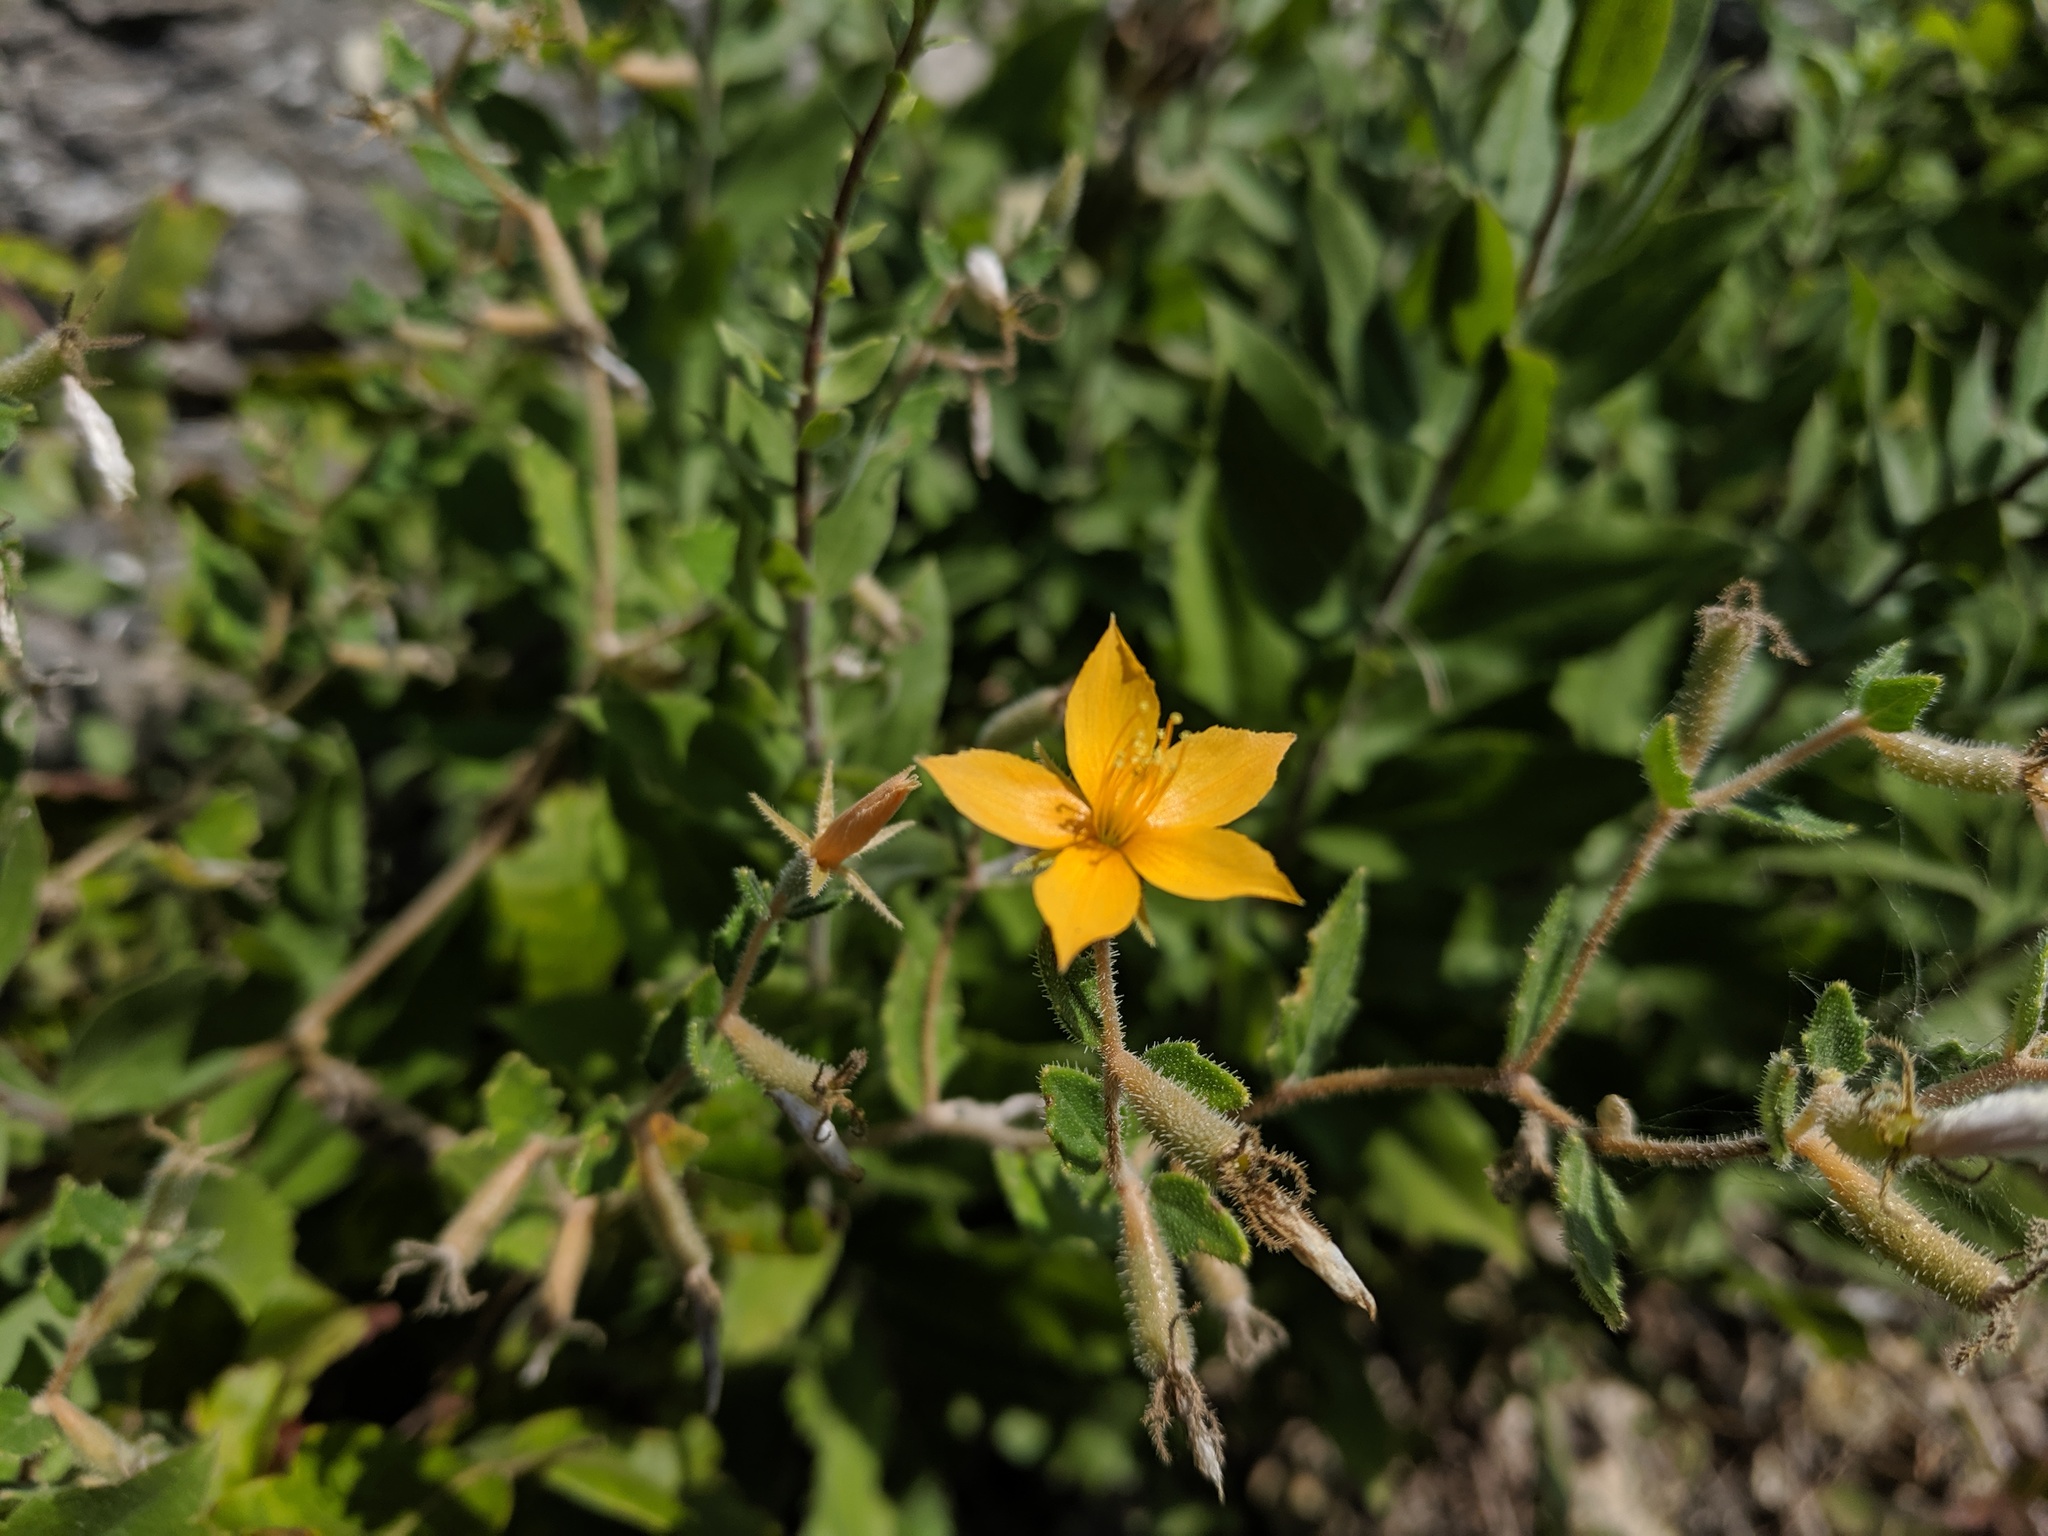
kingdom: Plantae
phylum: Tracheophyta
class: Magnoliopsida
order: Cornales
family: Loasaceae
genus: Mentzelia
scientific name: Mentzelia oligosperma
